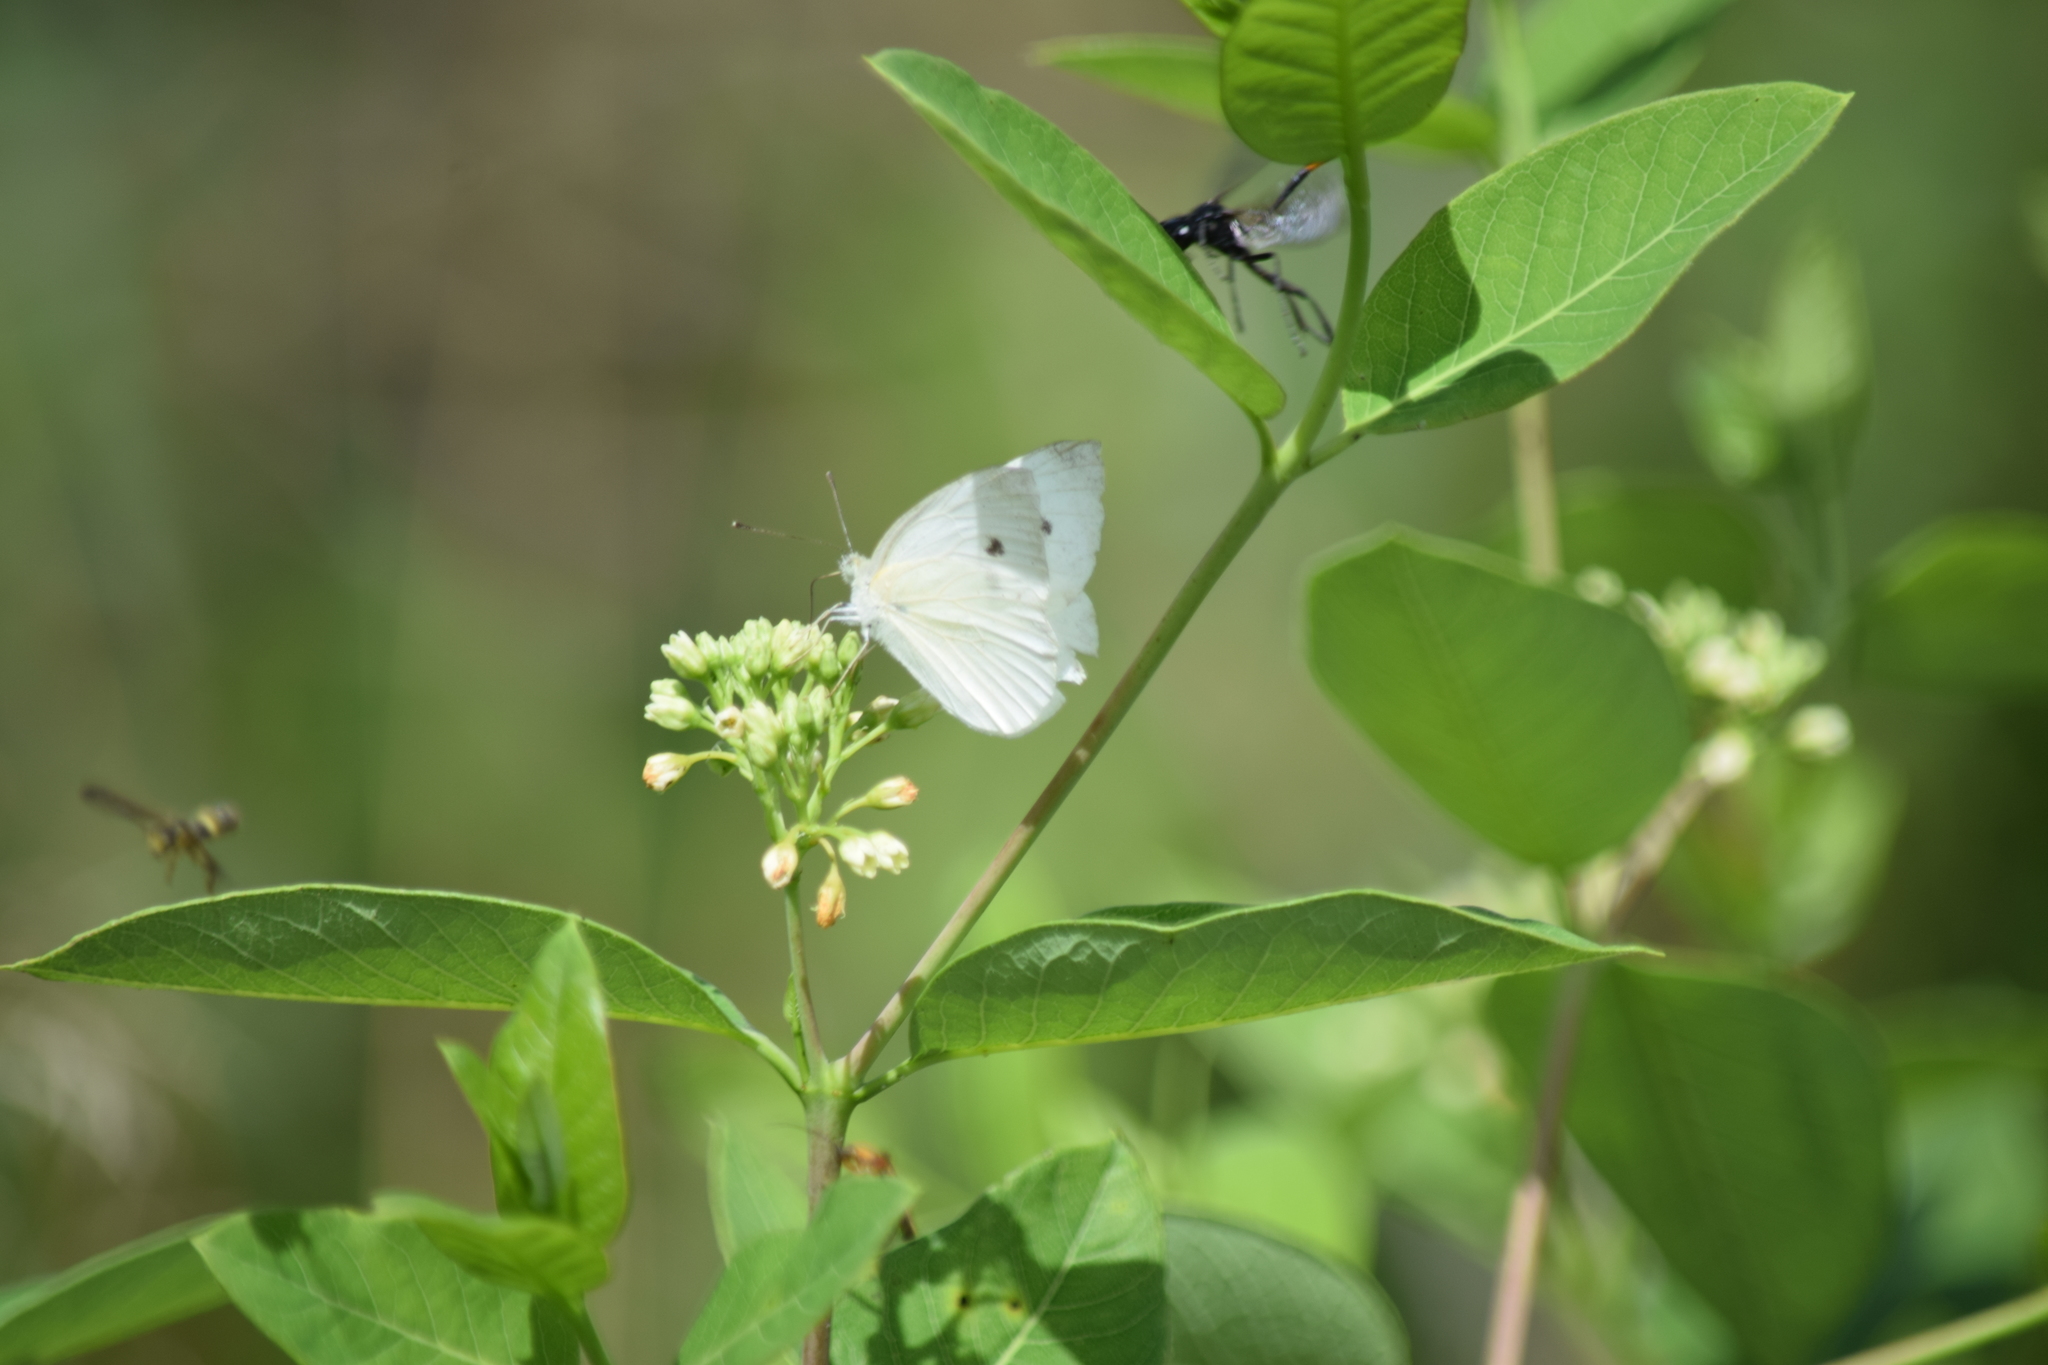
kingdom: Animalia
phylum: Arthropoda
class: Insecta
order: Lepidoptera
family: Pieridae
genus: Pieris
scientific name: Pieris rapae
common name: Small white
